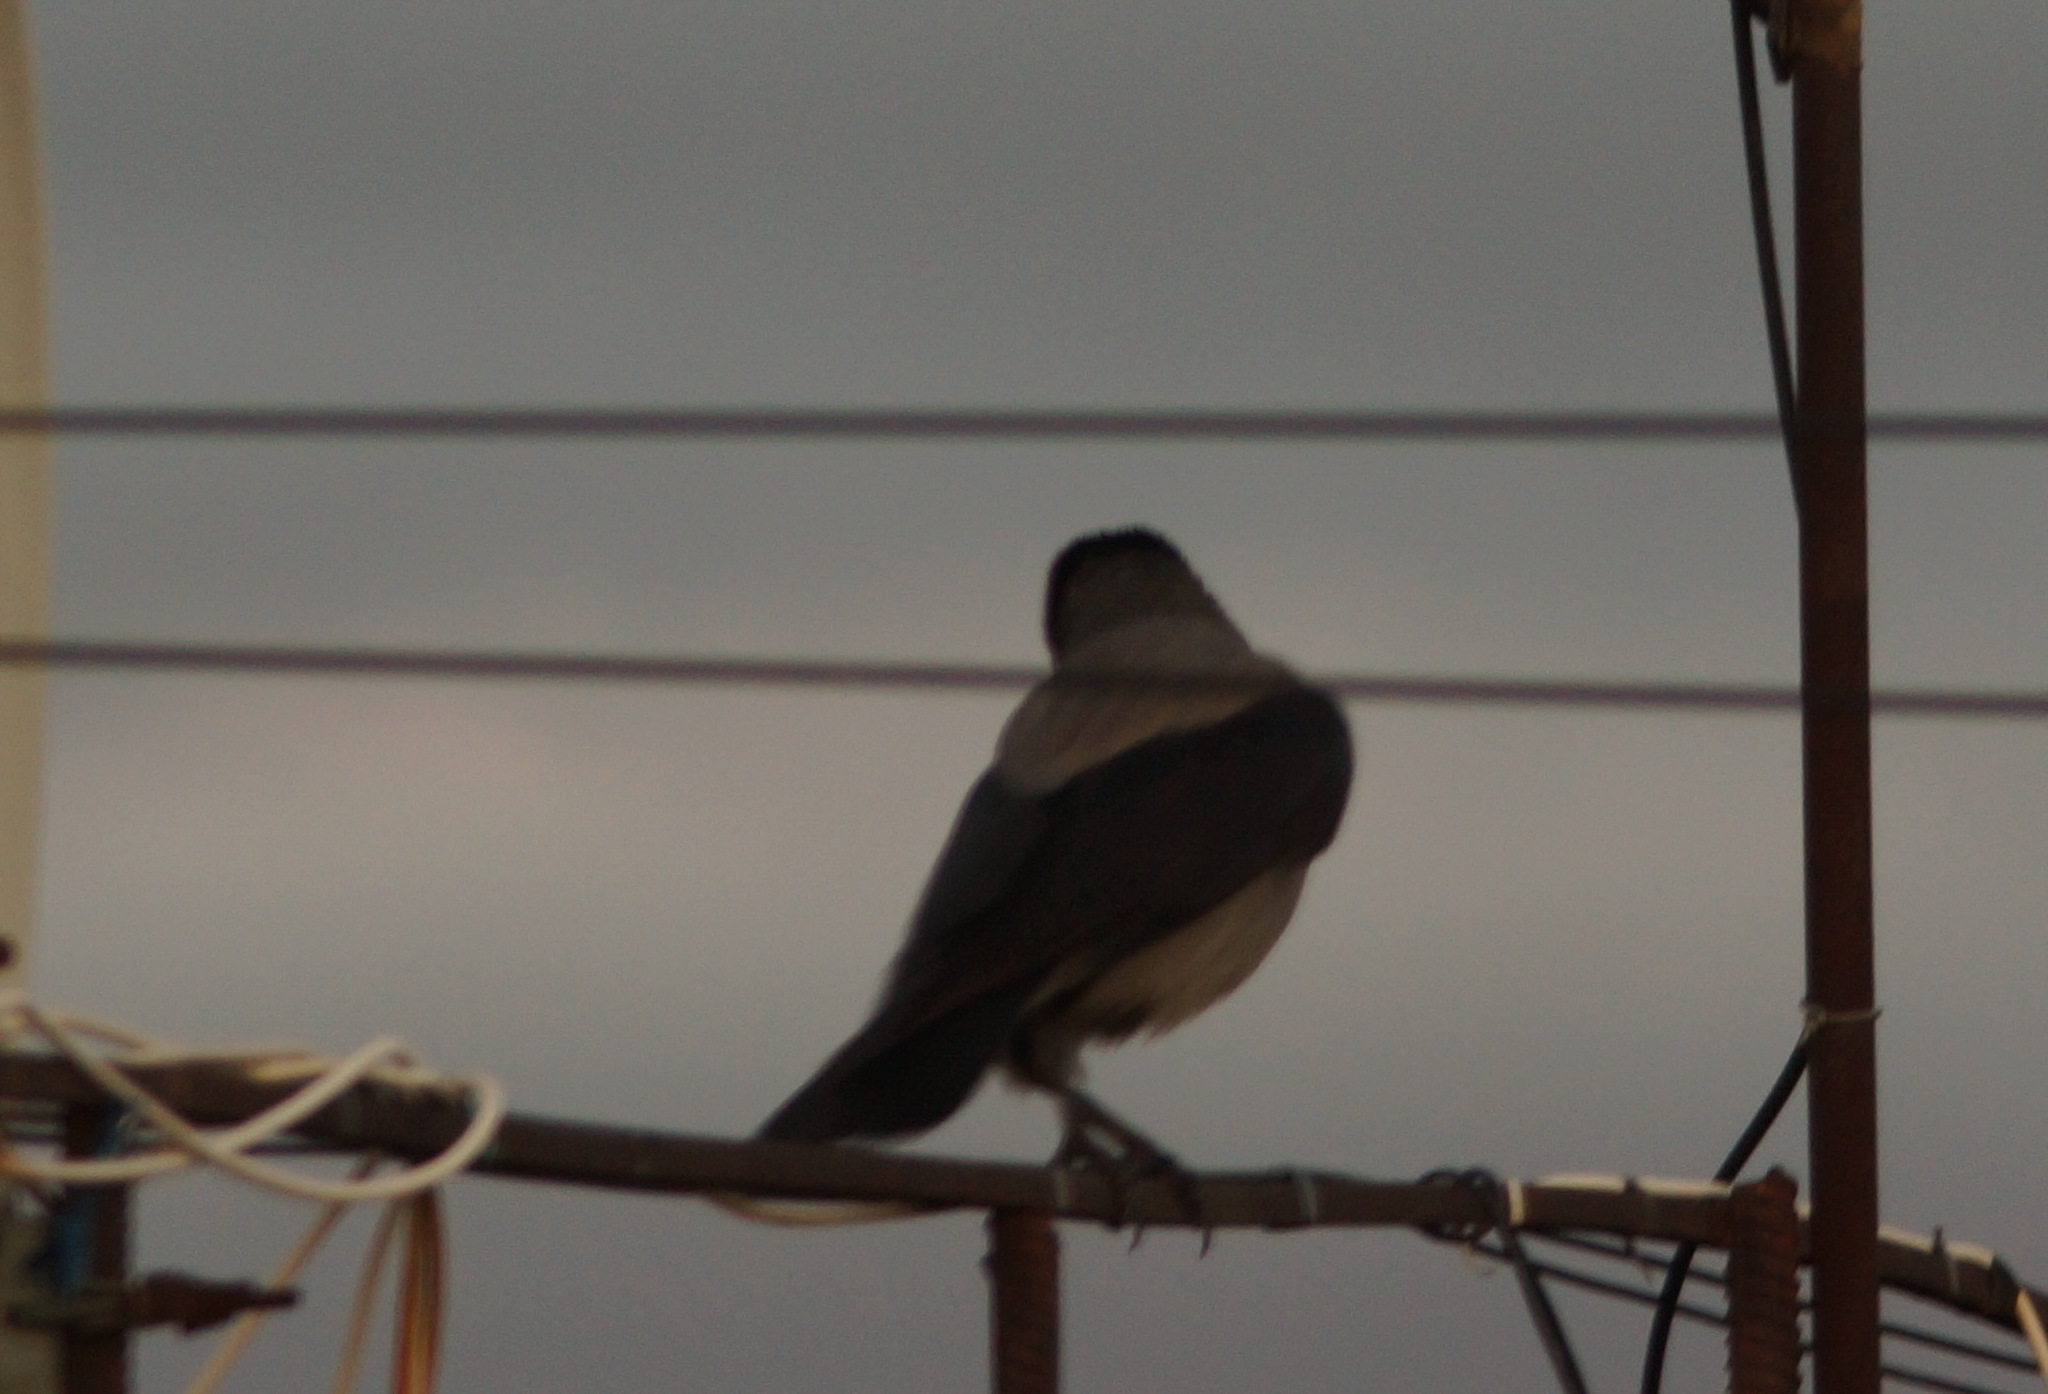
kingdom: Animalia
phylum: Chordata
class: Aves
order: Passeriformes
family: Corvidae
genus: Corvus
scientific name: Corvus cornix
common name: Hooded crow
